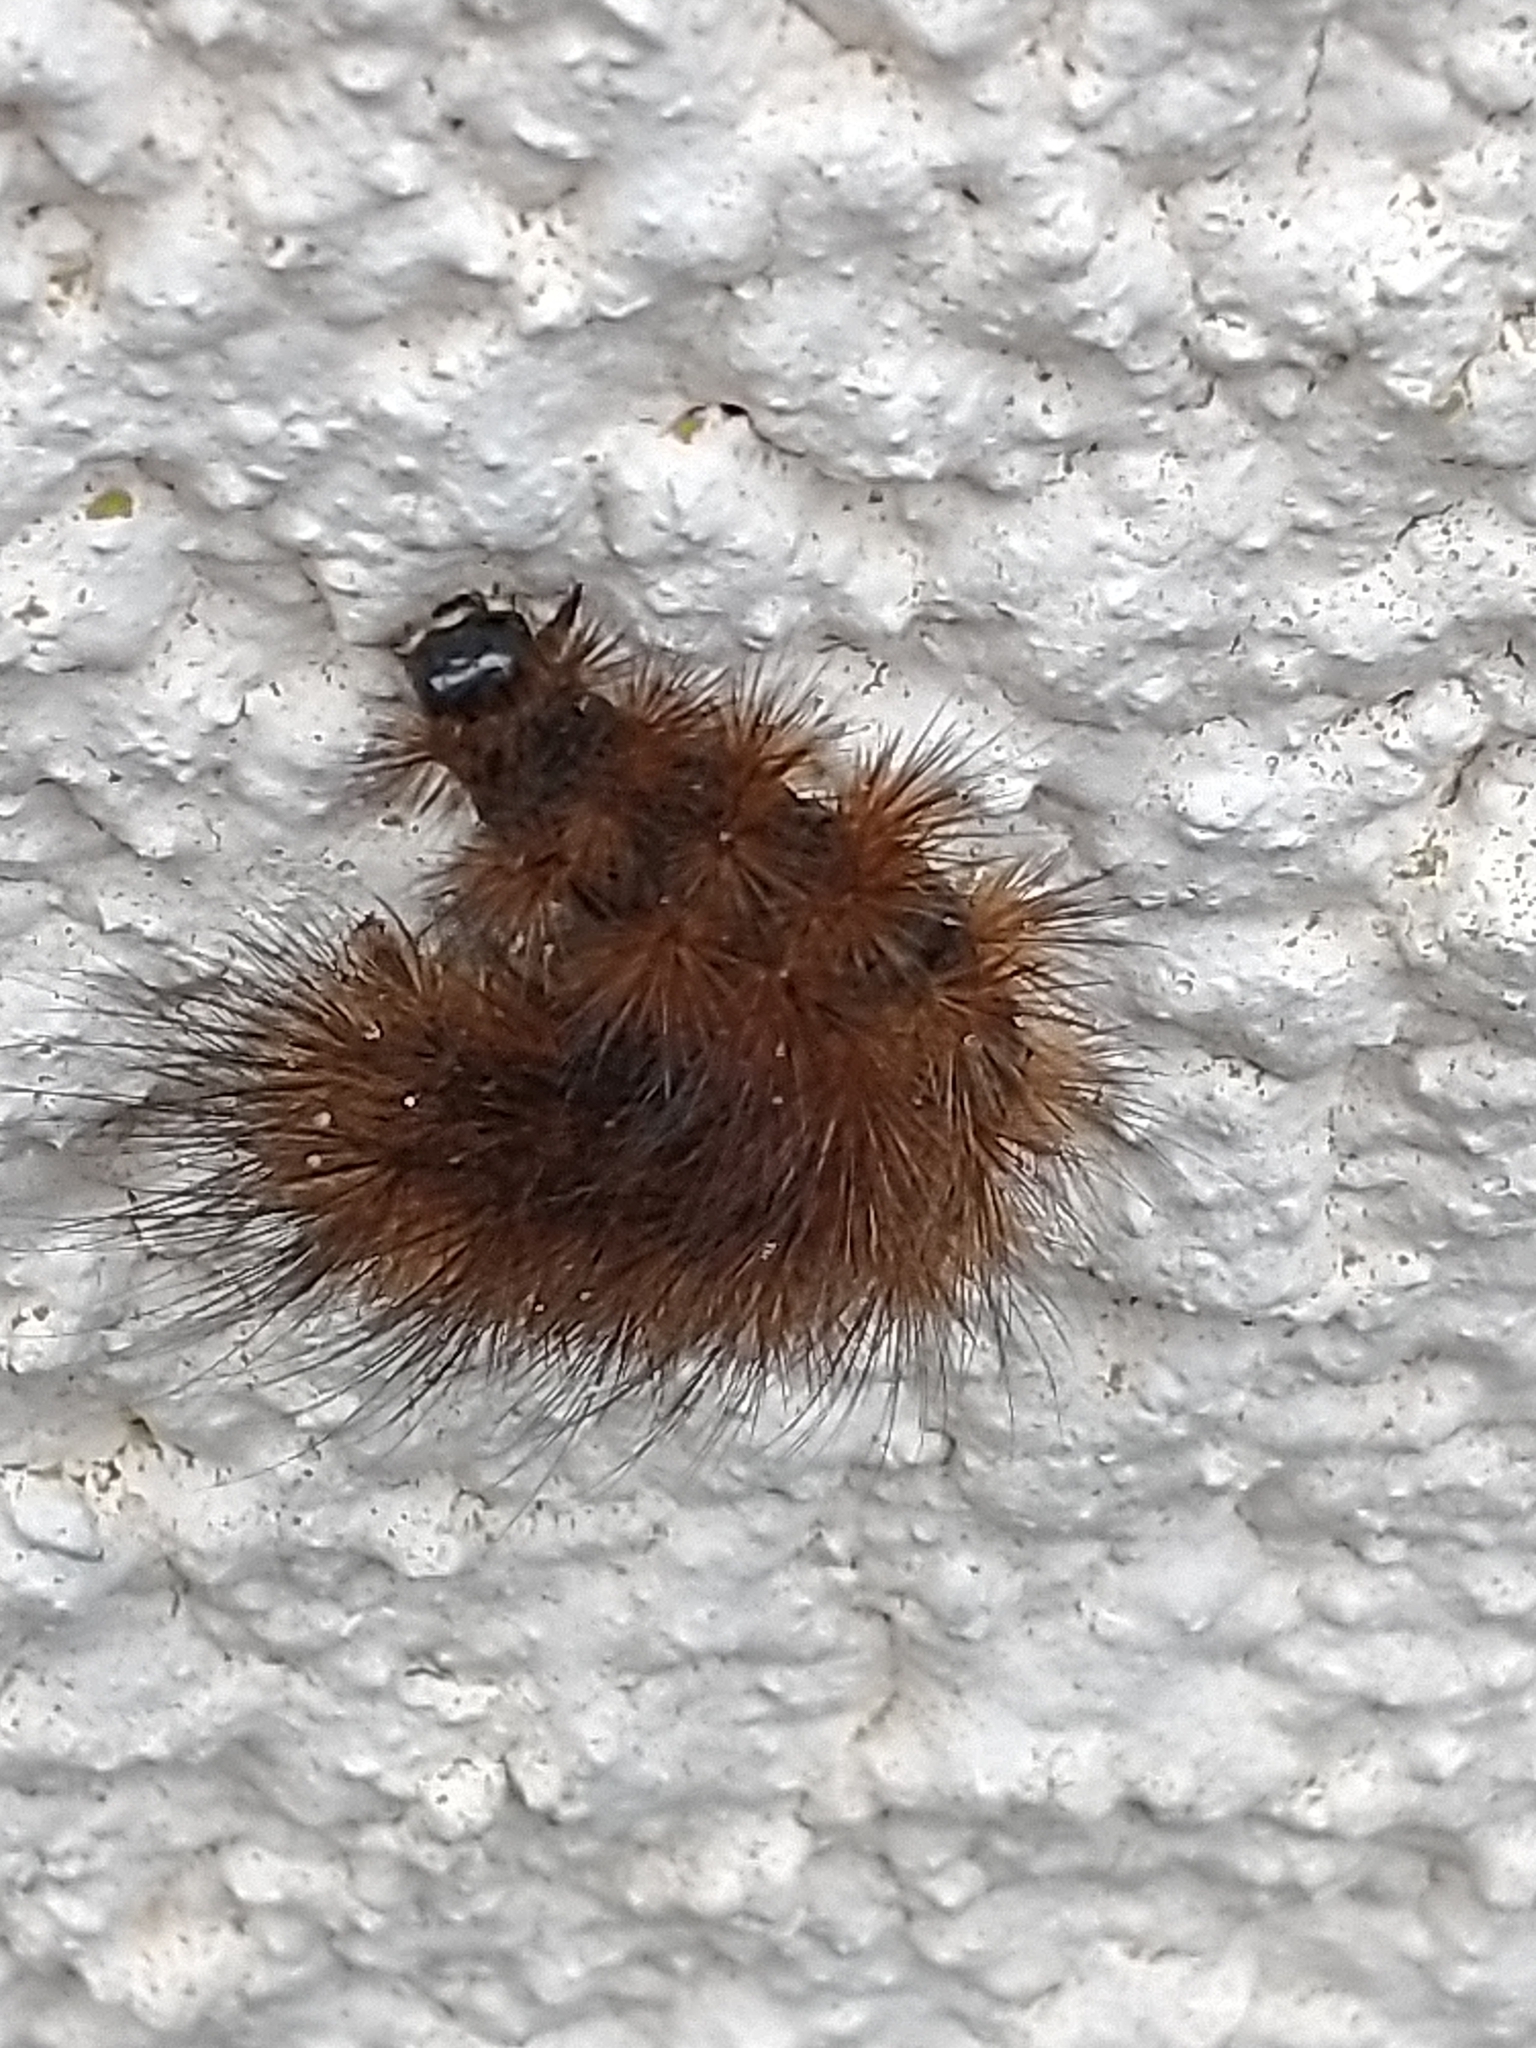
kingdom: Animalia
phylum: Arthropoda
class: Insecta
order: Lepidoptera
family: Erebidae
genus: Phragmatobia
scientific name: Phragmatobia fuliginosa
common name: Ruby tiger
